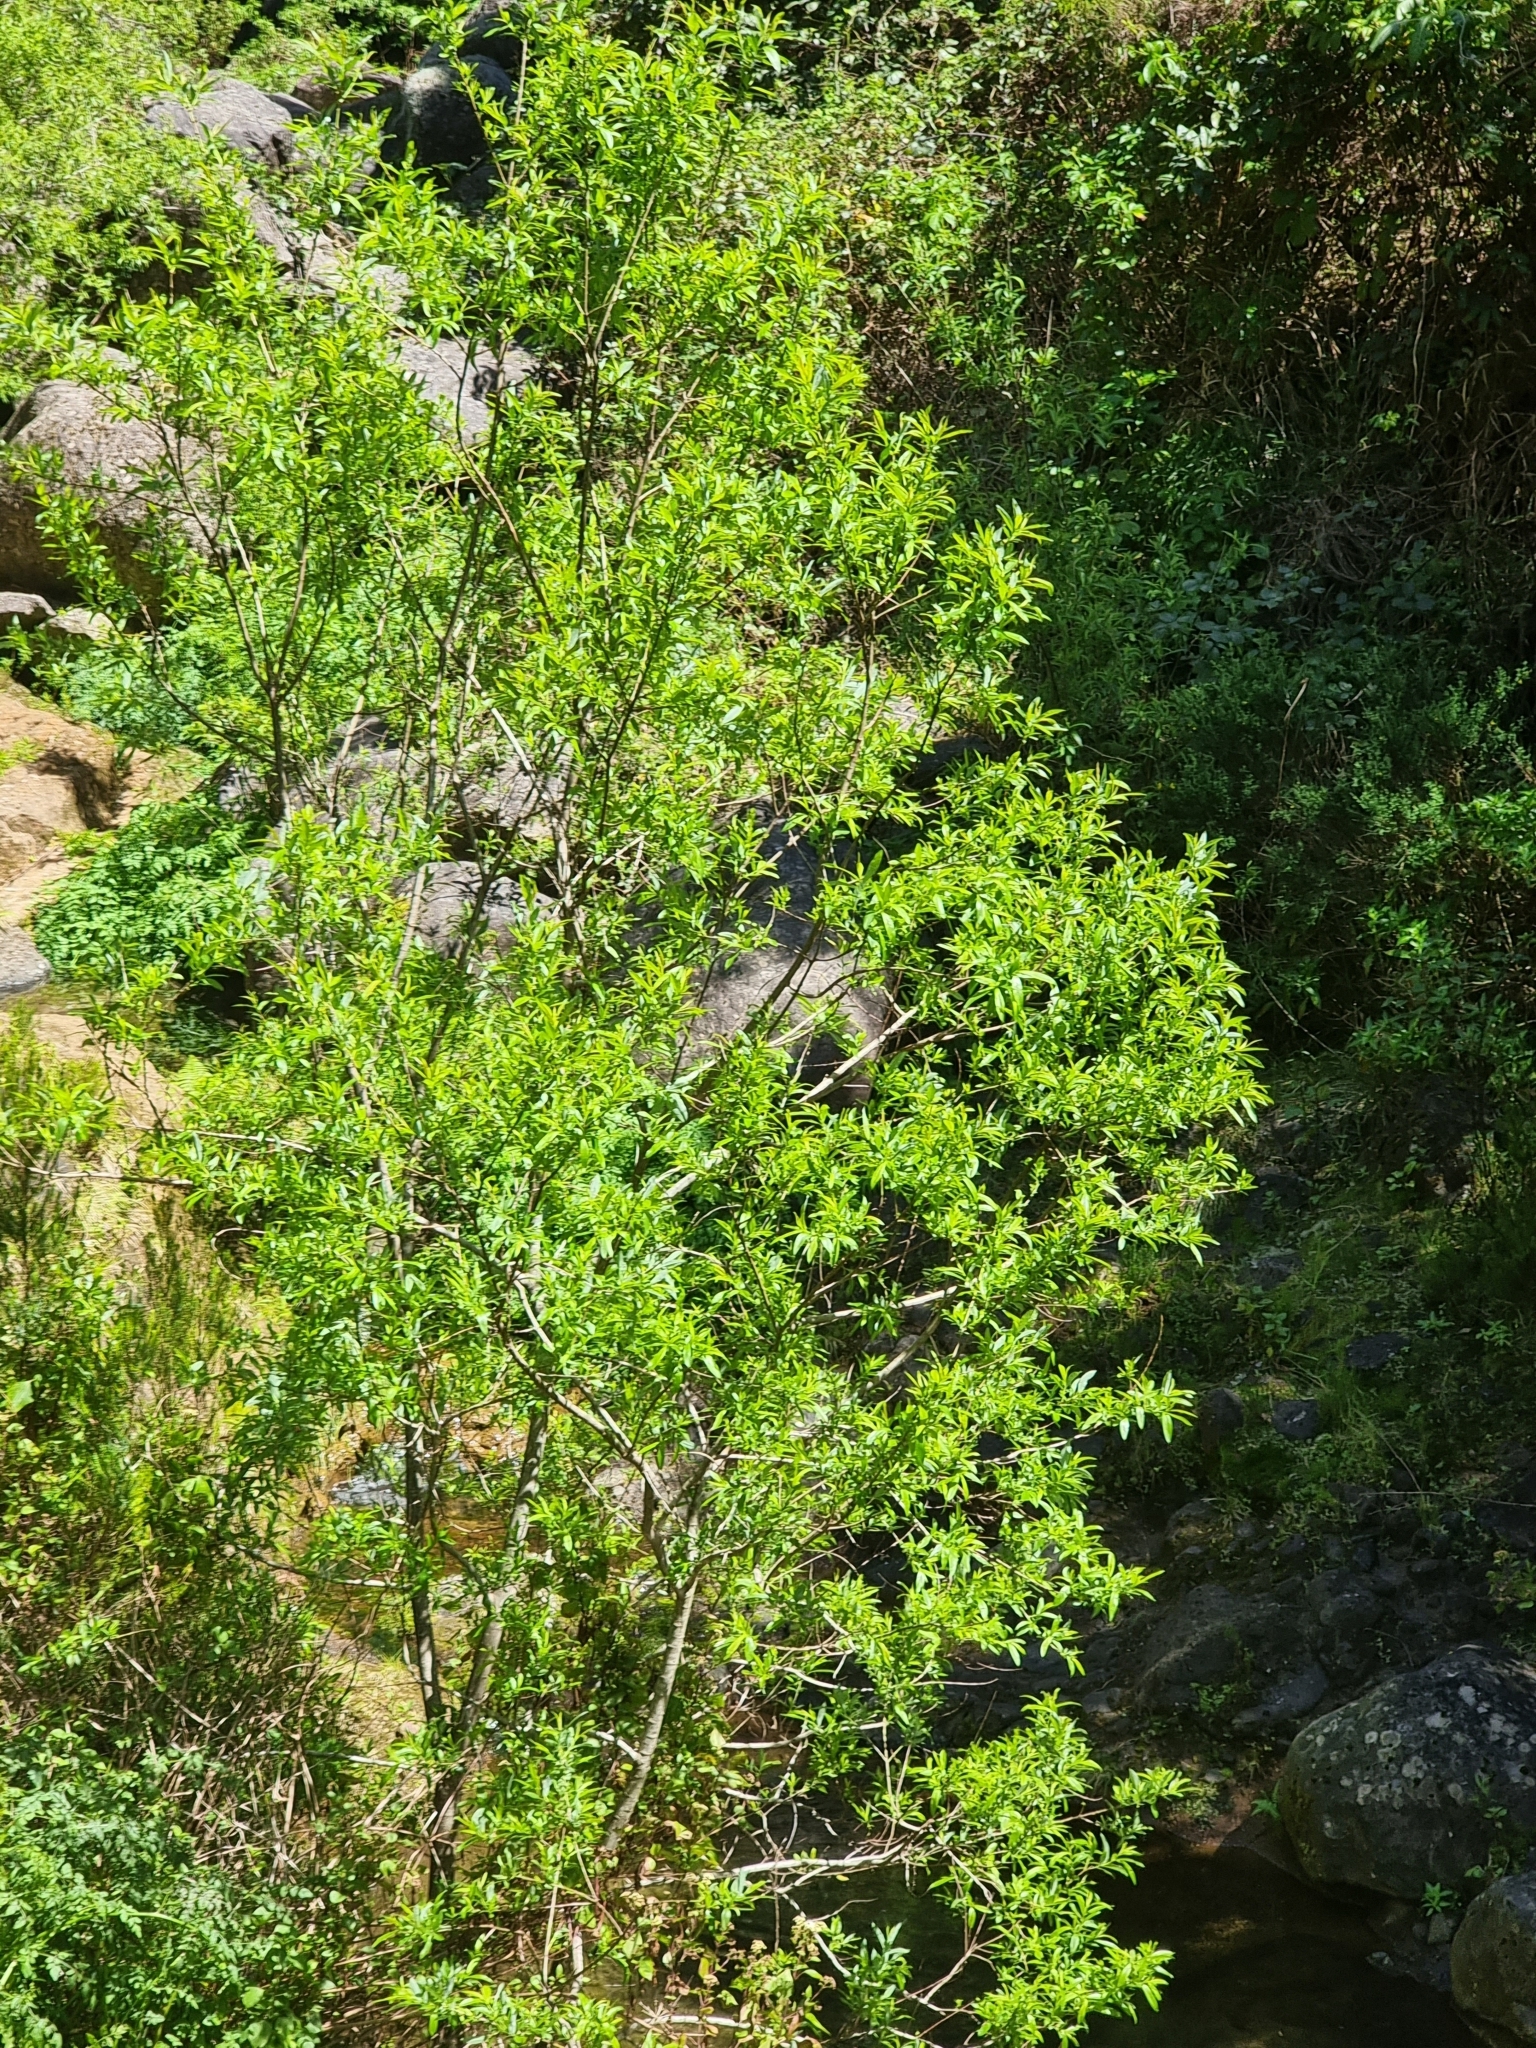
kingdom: Plantae
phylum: Tracheophyta
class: Magnoliopsida
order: Malpighiales
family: Salicaceae
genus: Salix
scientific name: Salix canariensis
